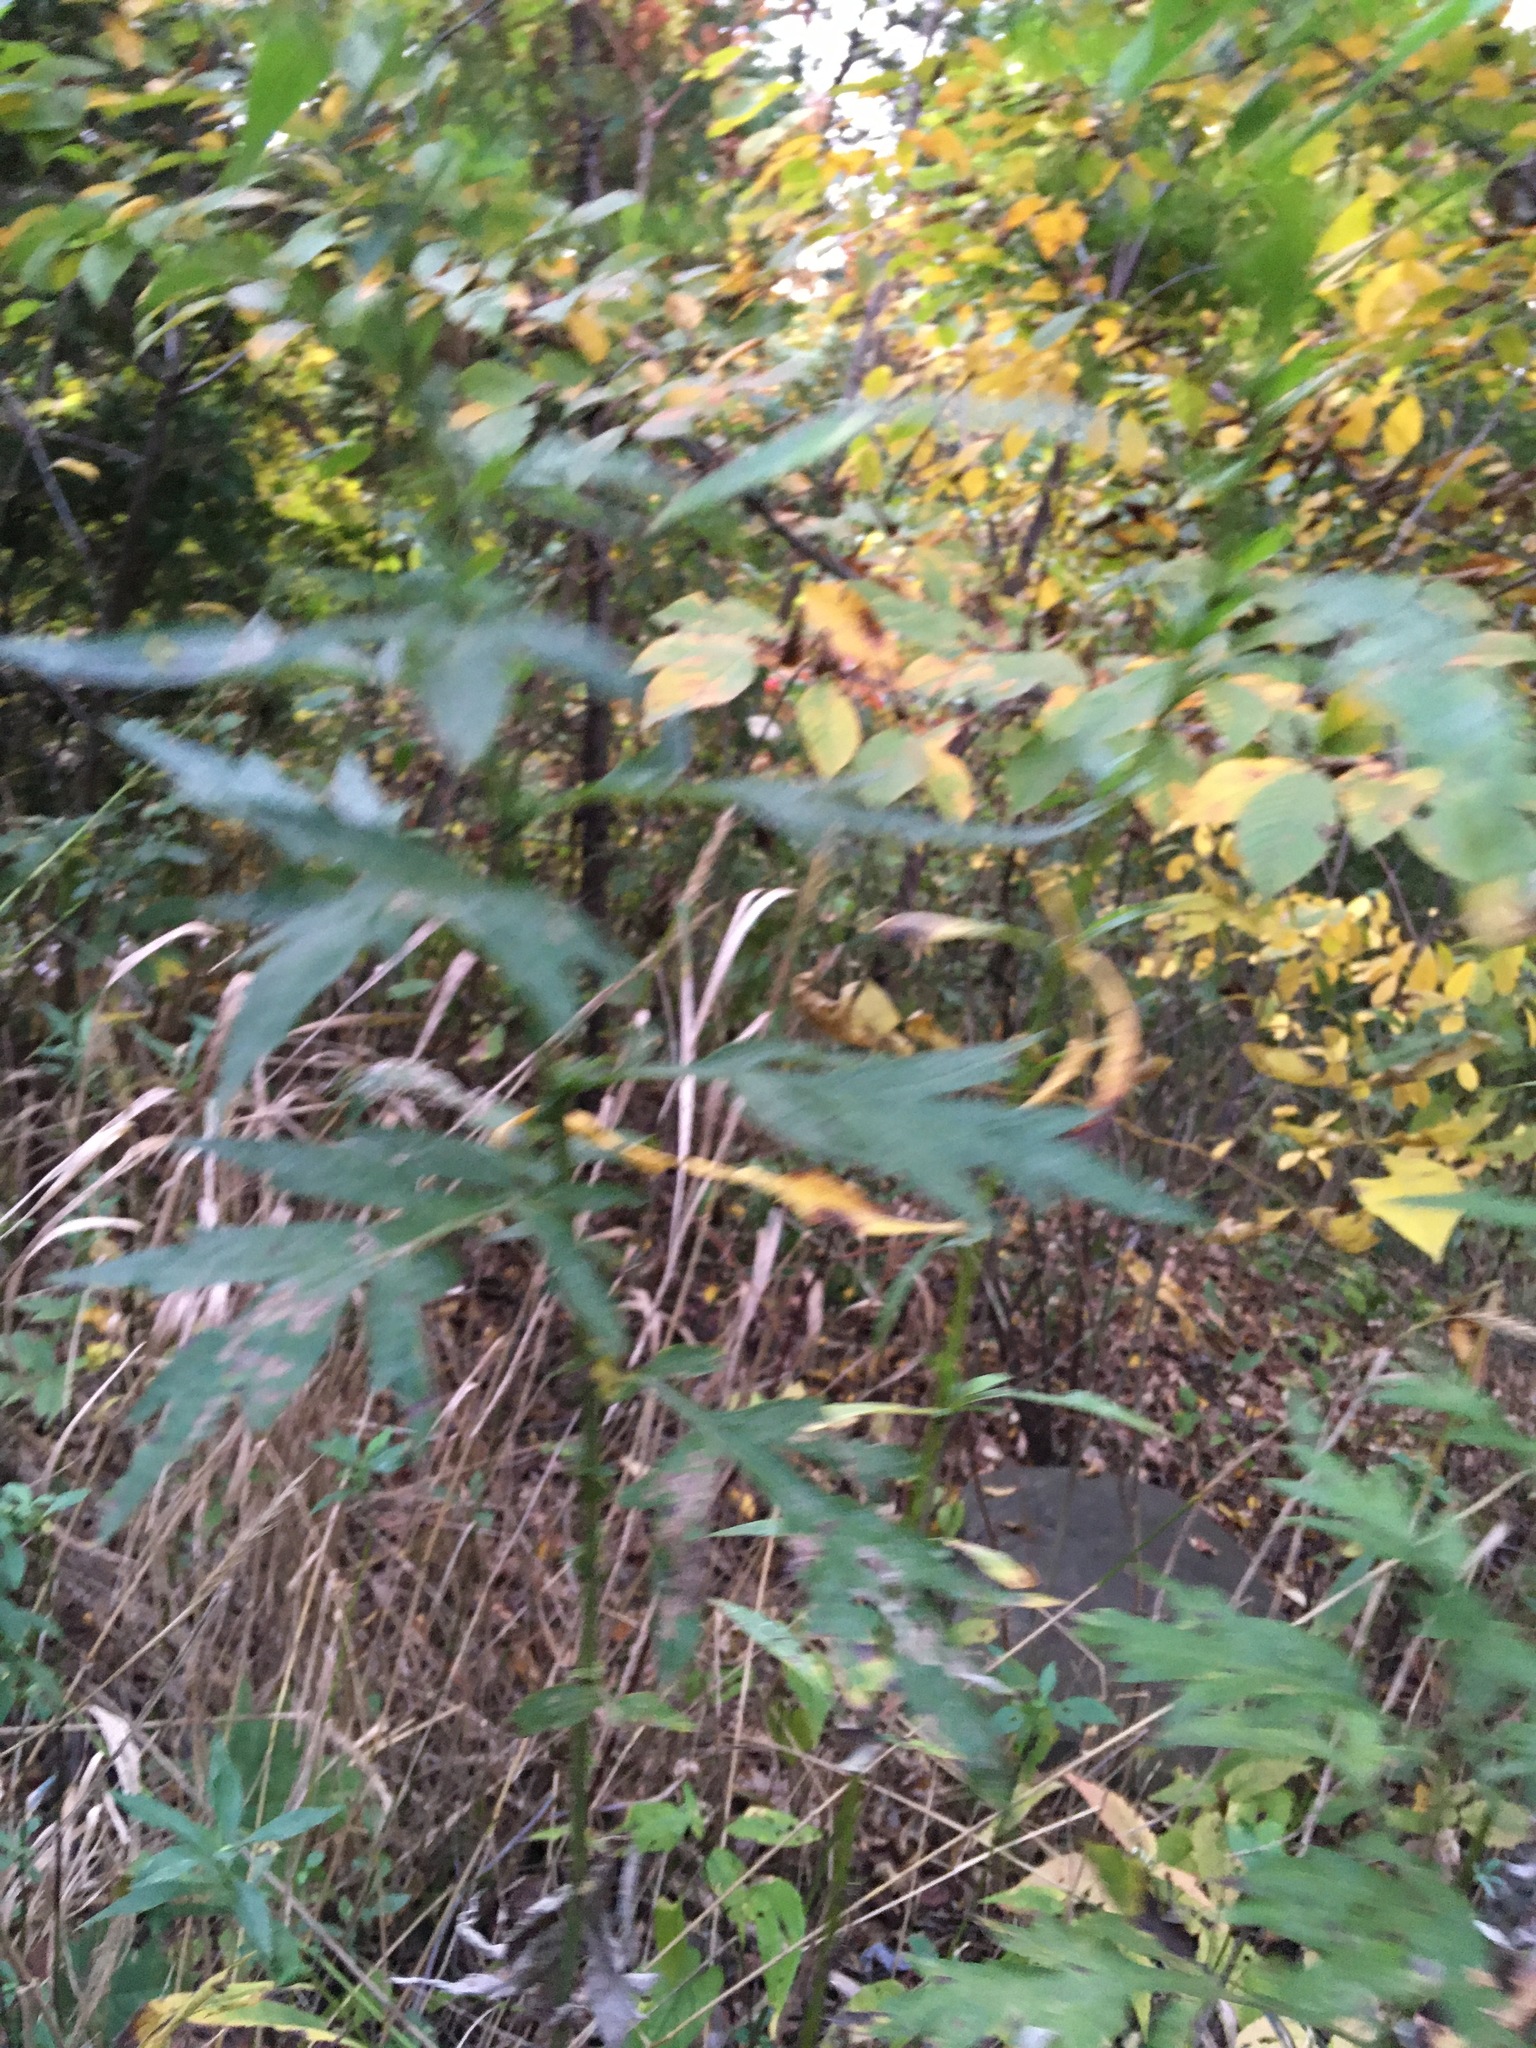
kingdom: Plantae
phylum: Tracheophyta
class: Magnoliopsida
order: Asterales
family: Asteraceae
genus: Artemisia
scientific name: Artemisia vulgaris
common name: Mugwort
